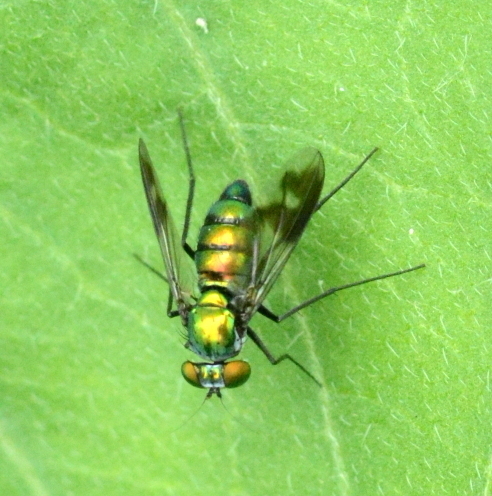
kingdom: Animalia
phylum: Arthropoda
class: Insecta
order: Diptera
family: Dolichopodidae
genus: Condylostylus
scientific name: Condylostylus patibulatus
